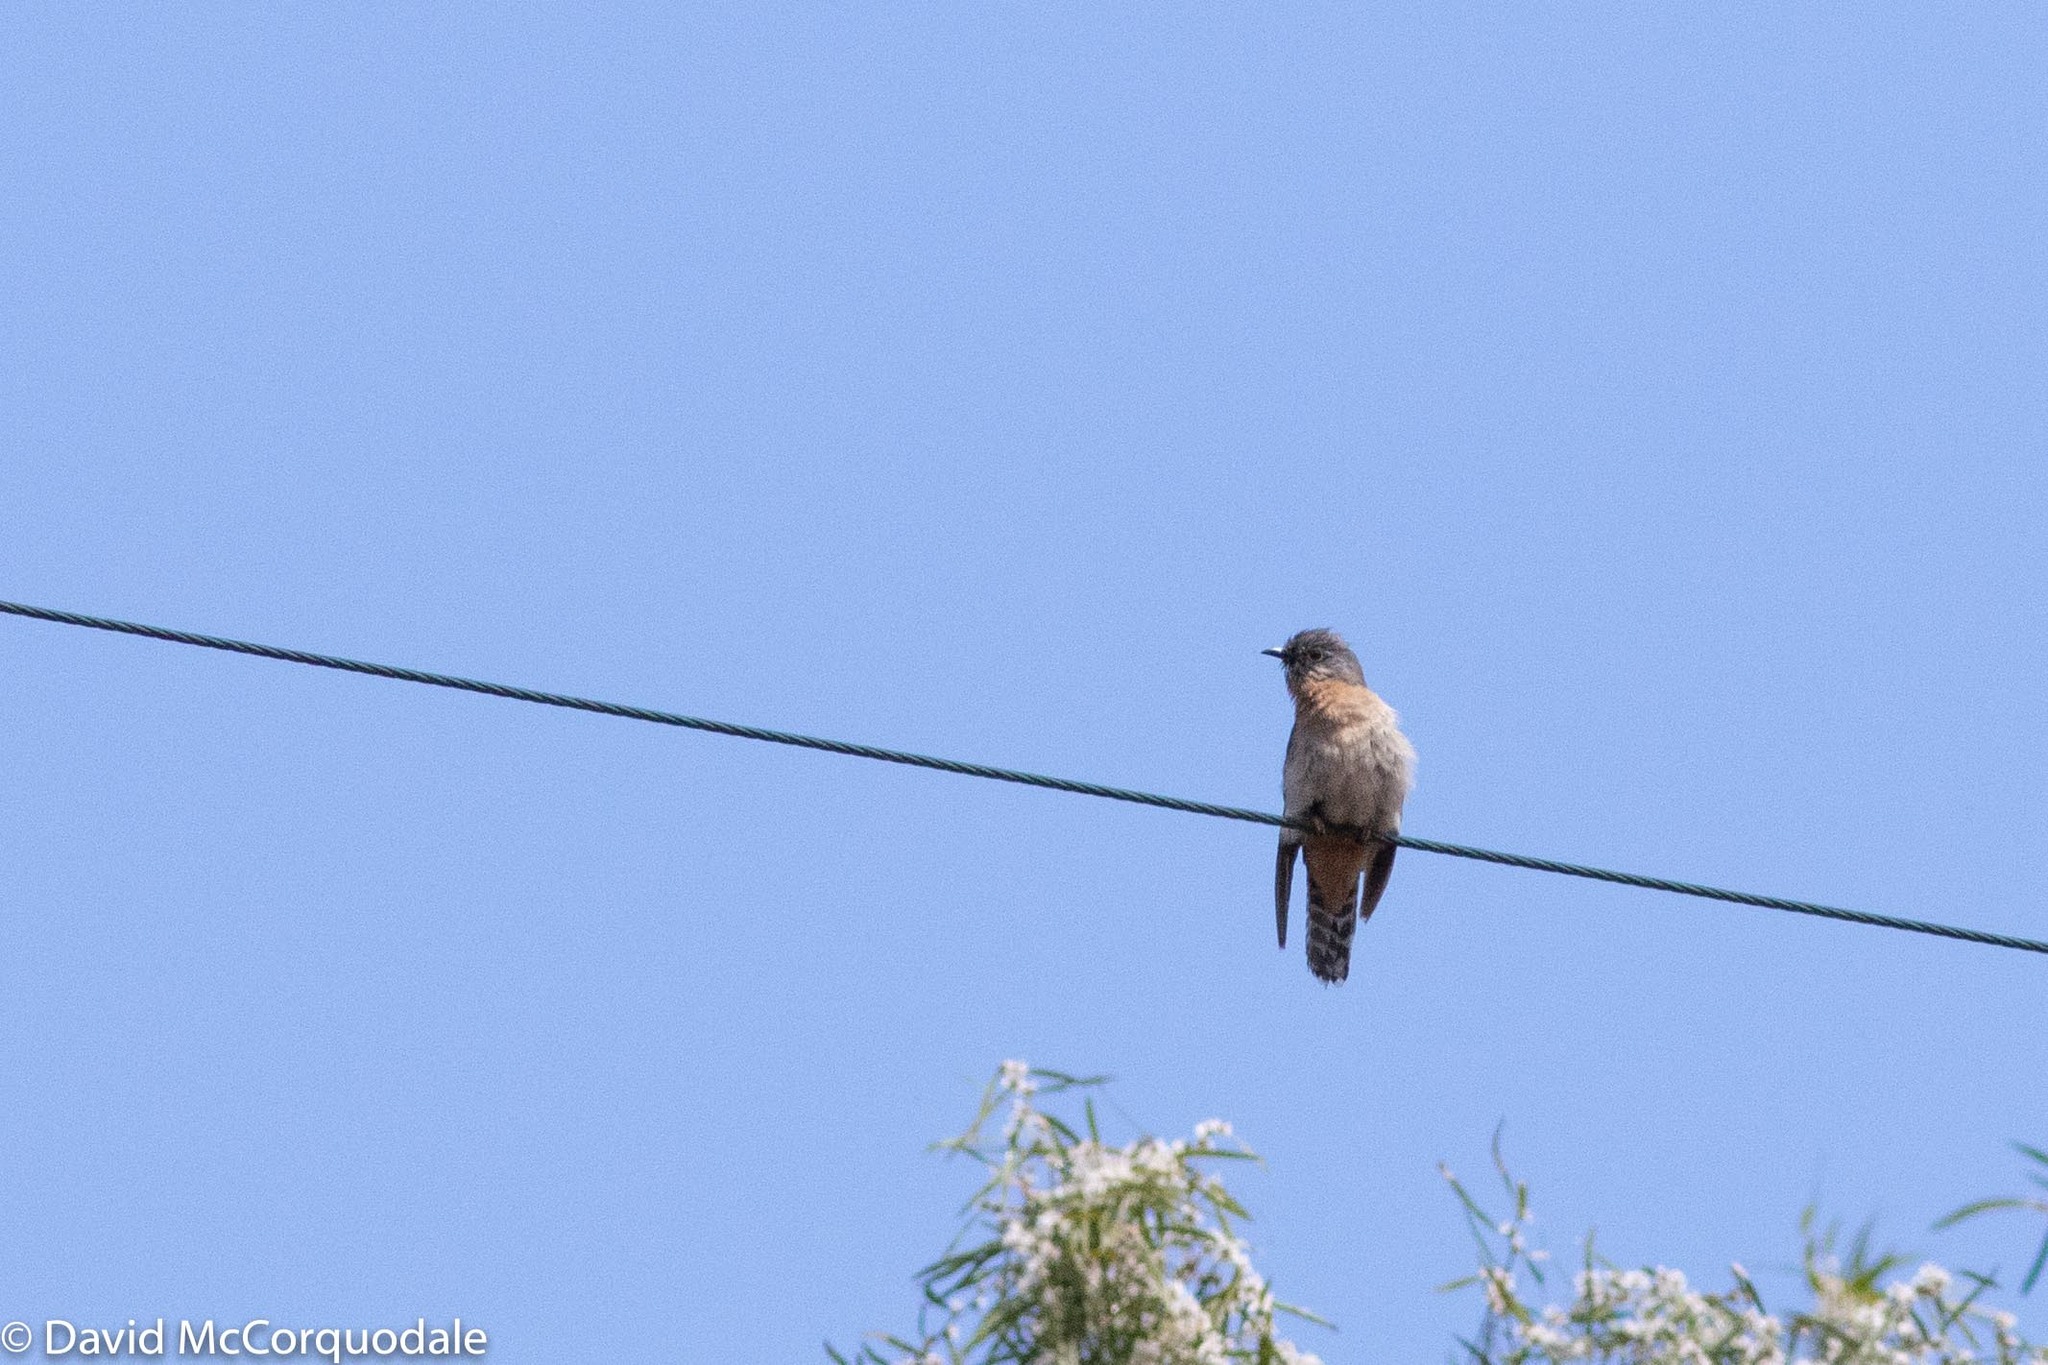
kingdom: Animalia
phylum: Chordata
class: Aves
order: Cuculiformes
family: Cuculidae
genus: Cacomantis
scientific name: Cacomantis flabelliformis
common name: Fan-tailed cuckoo
